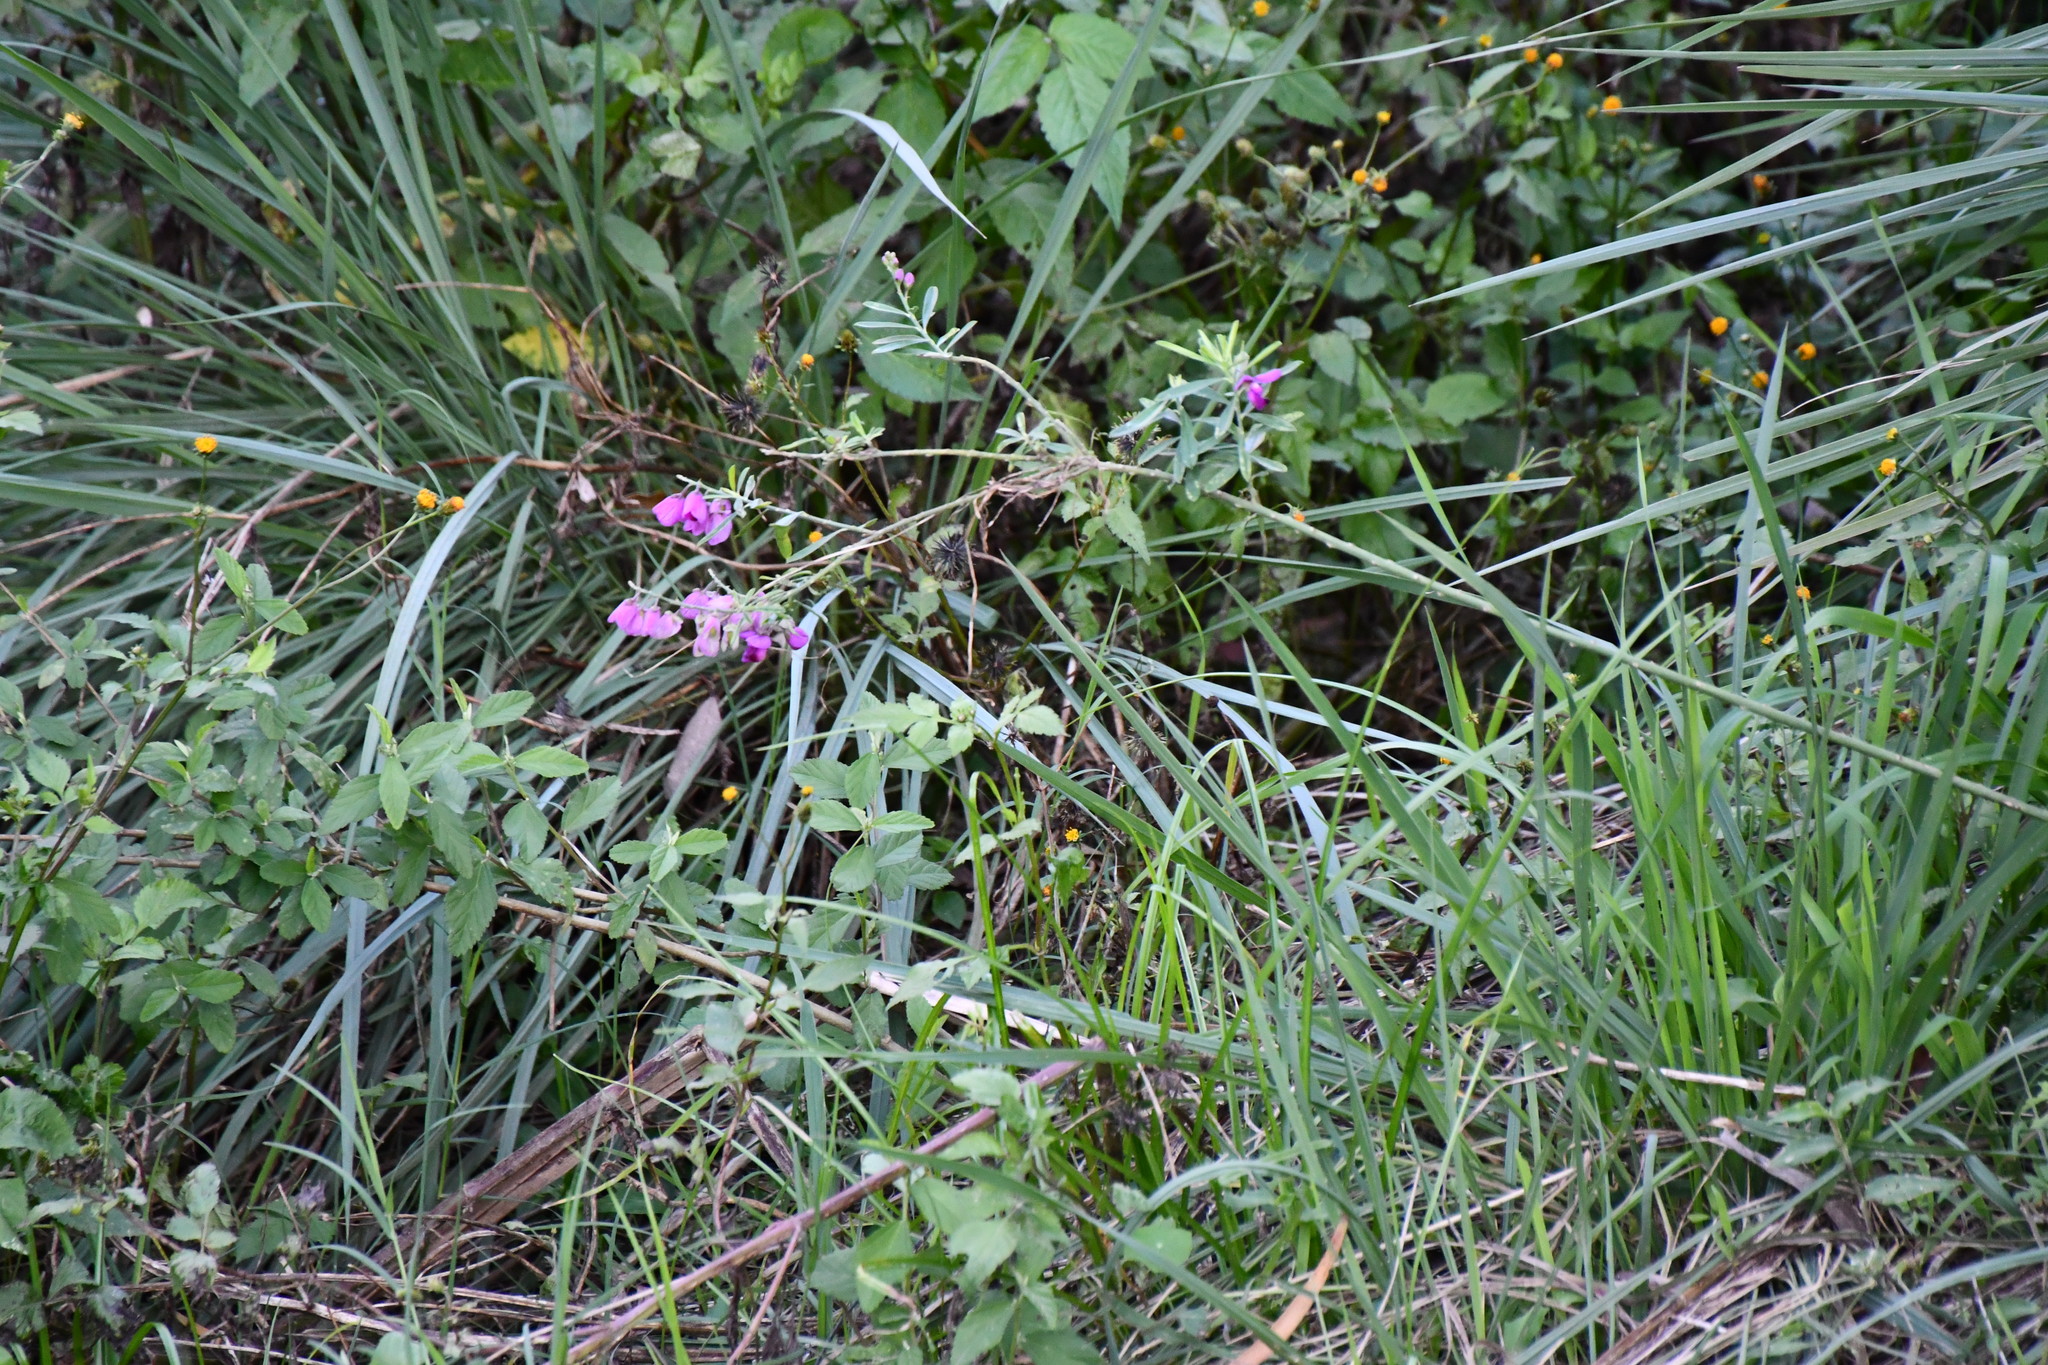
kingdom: Plantae
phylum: Tracheophyta
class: Magnoliopsida
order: Fabales
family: Polygalaceae
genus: Polygala
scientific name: Polygala virgata
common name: Milkwort
